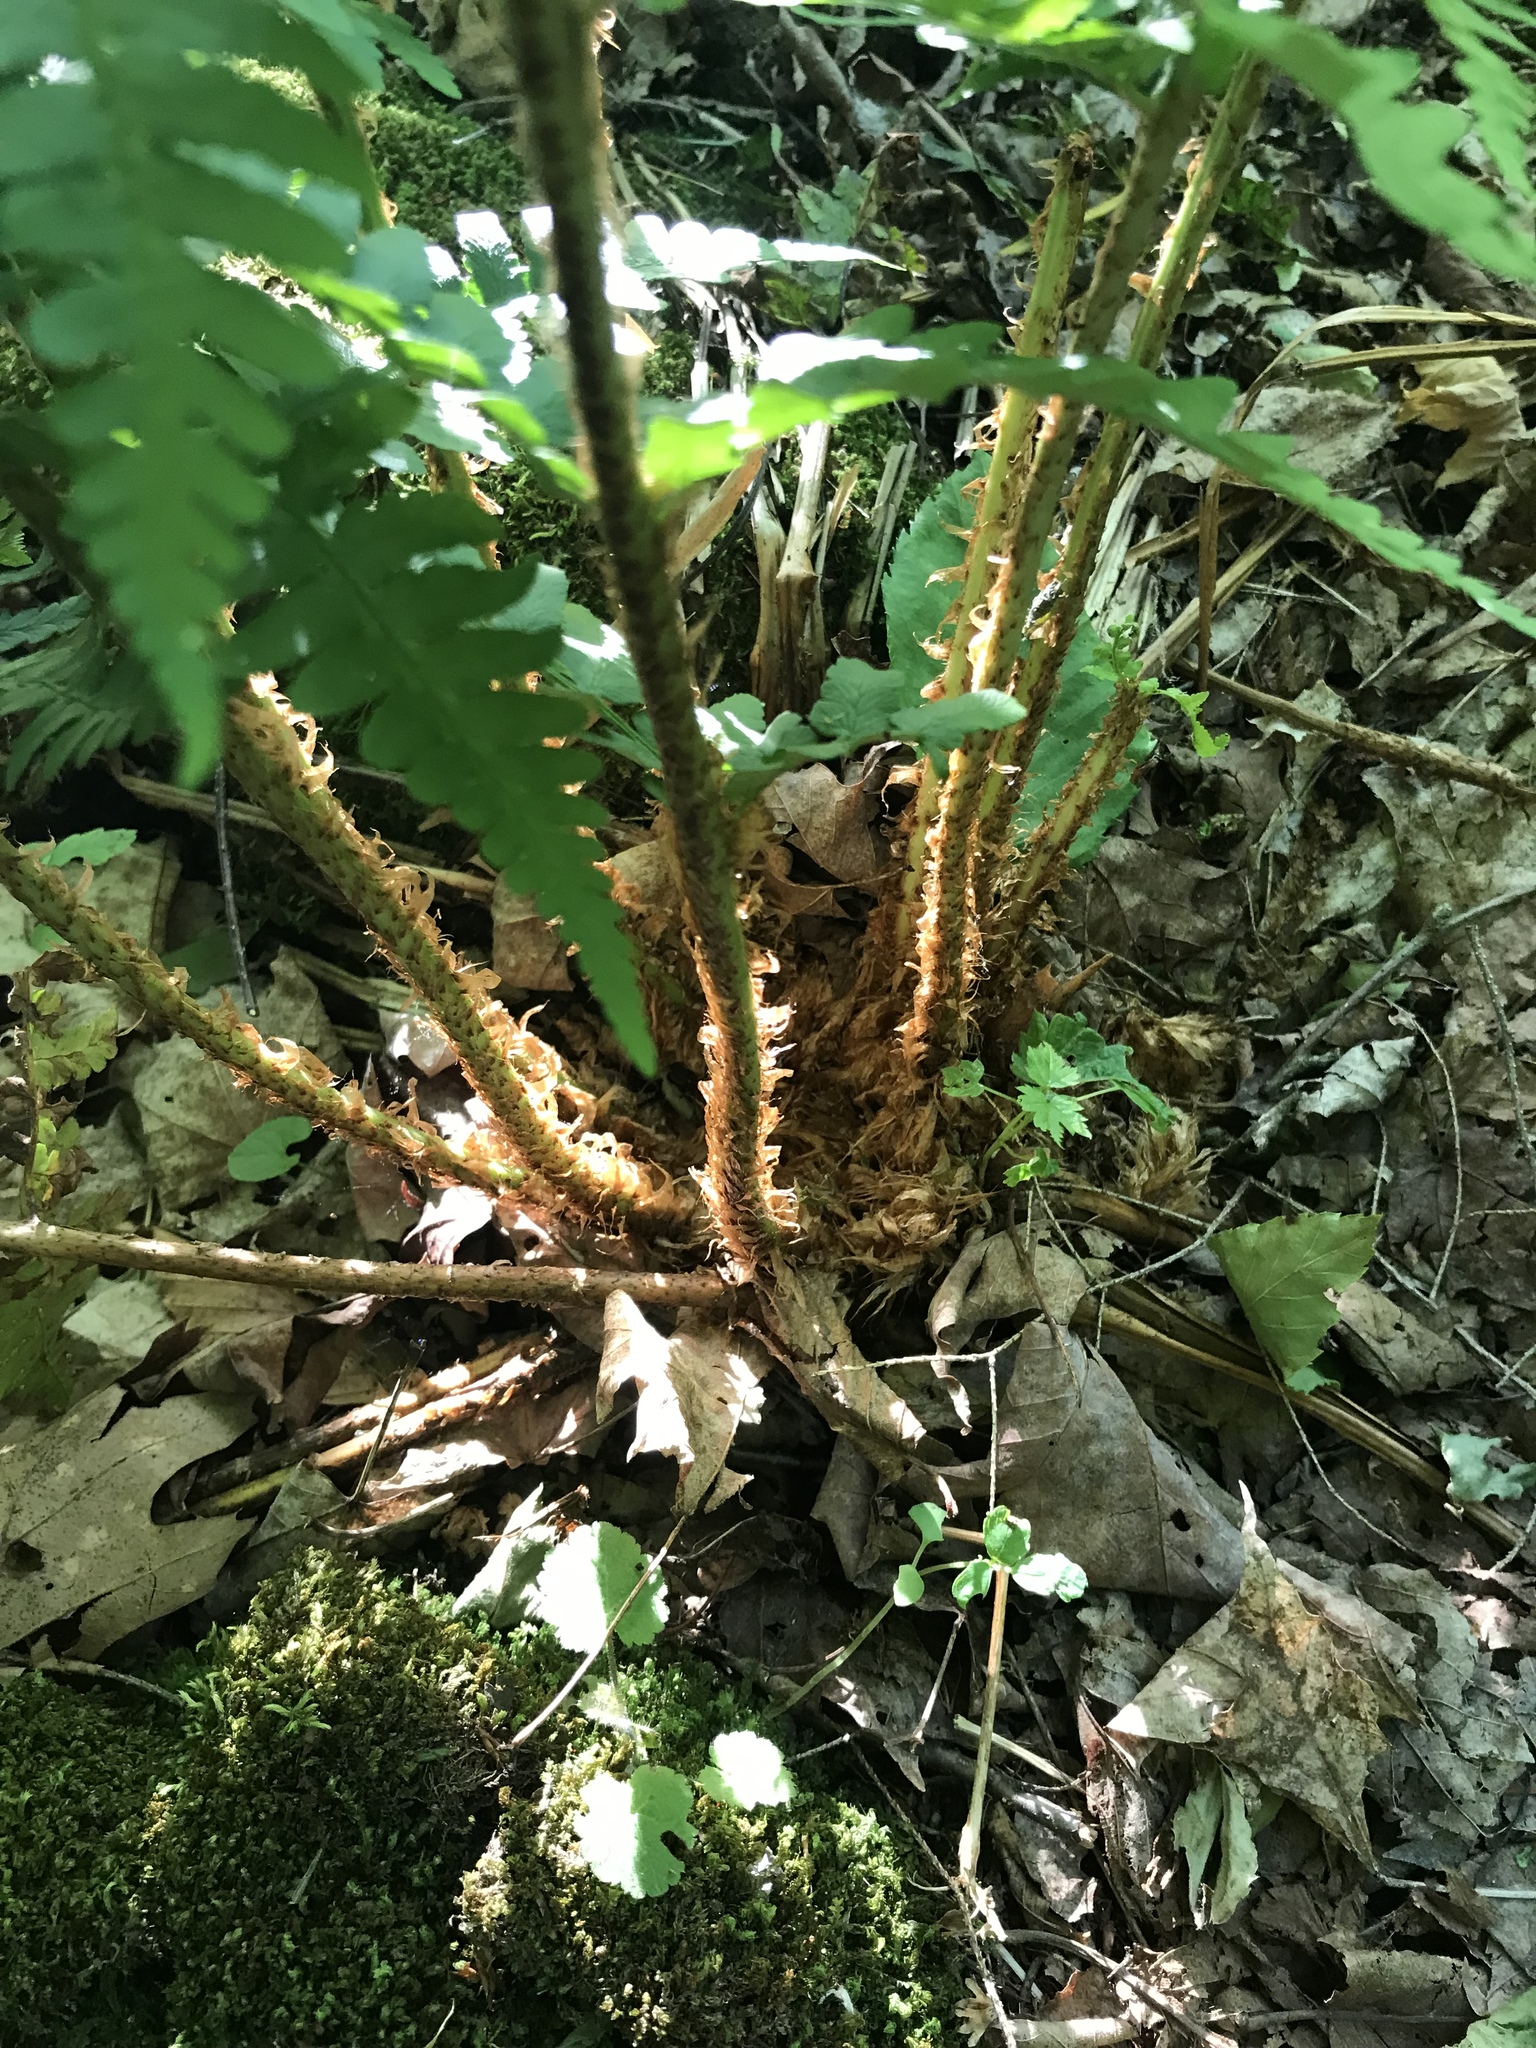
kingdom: Plantae
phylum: Tracheophyta
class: Polypodiopsida
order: Polypodiales
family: Dryopteridaceae
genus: Dryopteris
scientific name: Dryopteris marginalis
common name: Marginal wood fern
